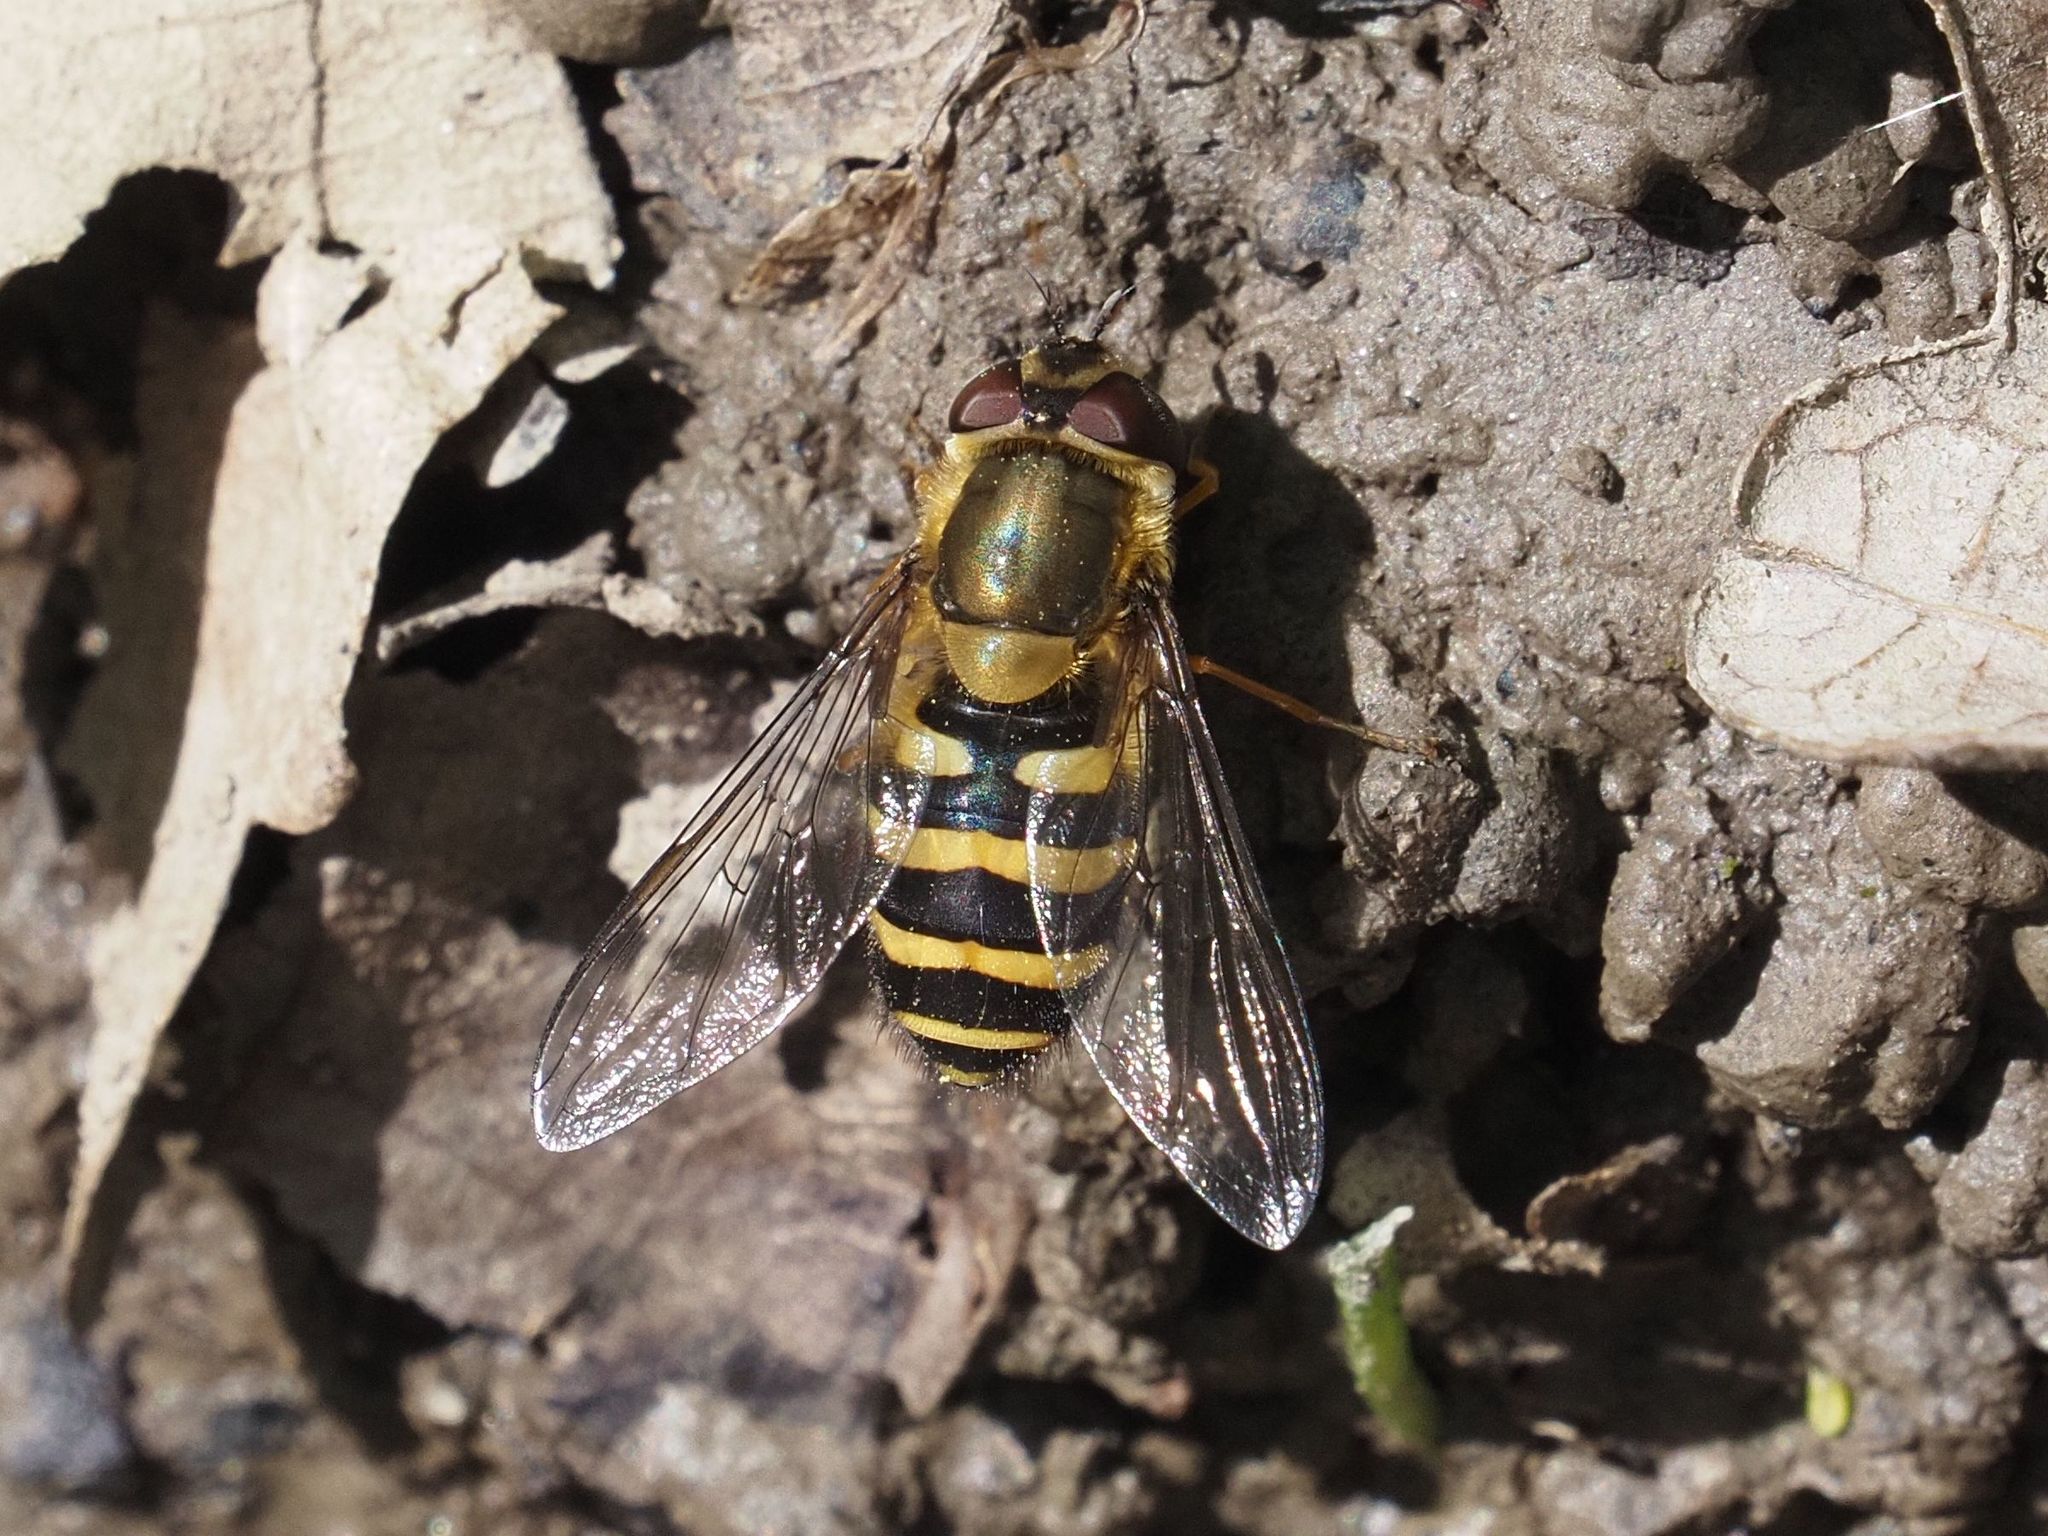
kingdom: Animalia
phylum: Arthropoda
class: Insecta
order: Diptera
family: Syrphidae
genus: Syrphus
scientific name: Syrphus torvus
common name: Hairy-eyed flower fly
